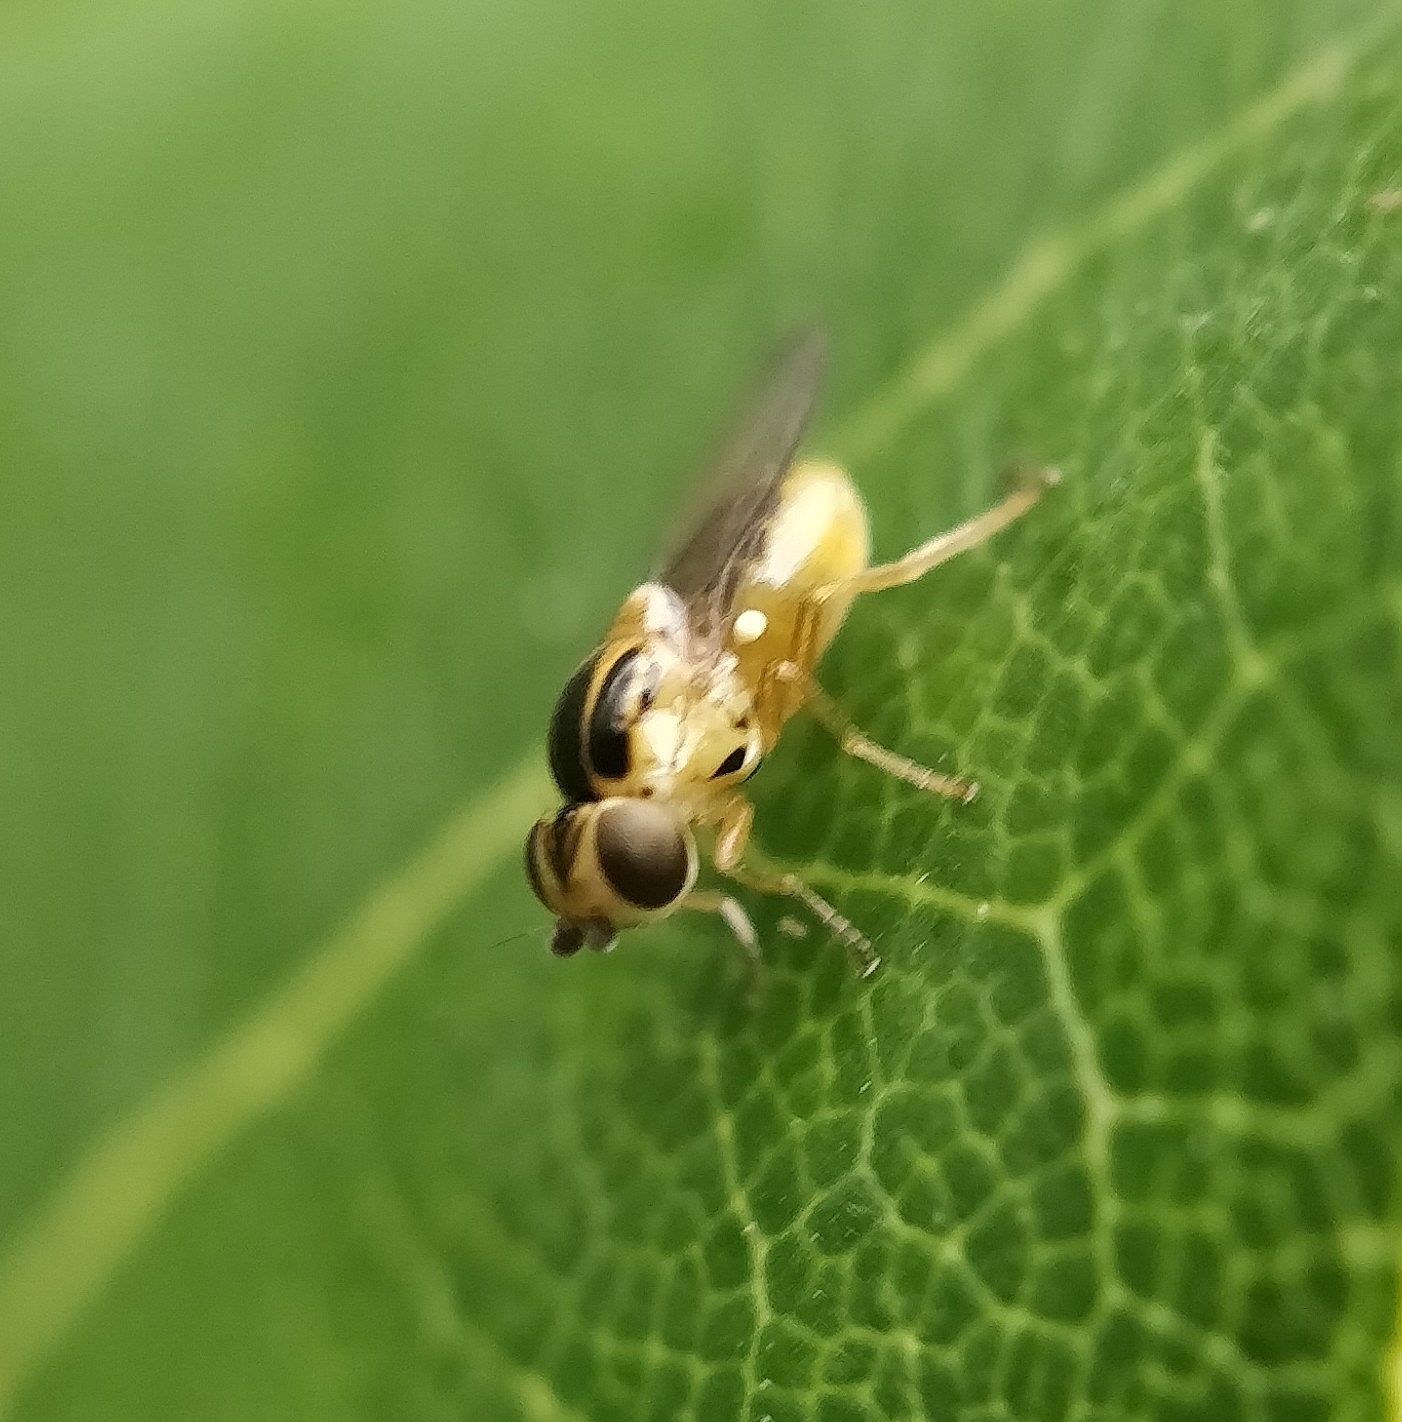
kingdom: Animalia
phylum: Arthropoda
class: Insecta
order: Diptera
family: Chloropidae
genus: Thaumatomyia
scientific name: Thaumatomyia notata
